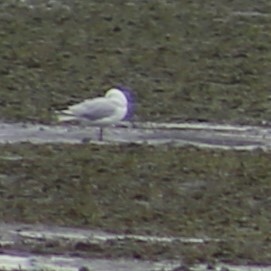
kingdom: Animalia
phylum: Chordata
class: Aves
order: Charadriiformes
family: Laridae
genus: Chroicocephalus
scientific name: Chroicocephalus novaehollandiae
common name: Silver gull
